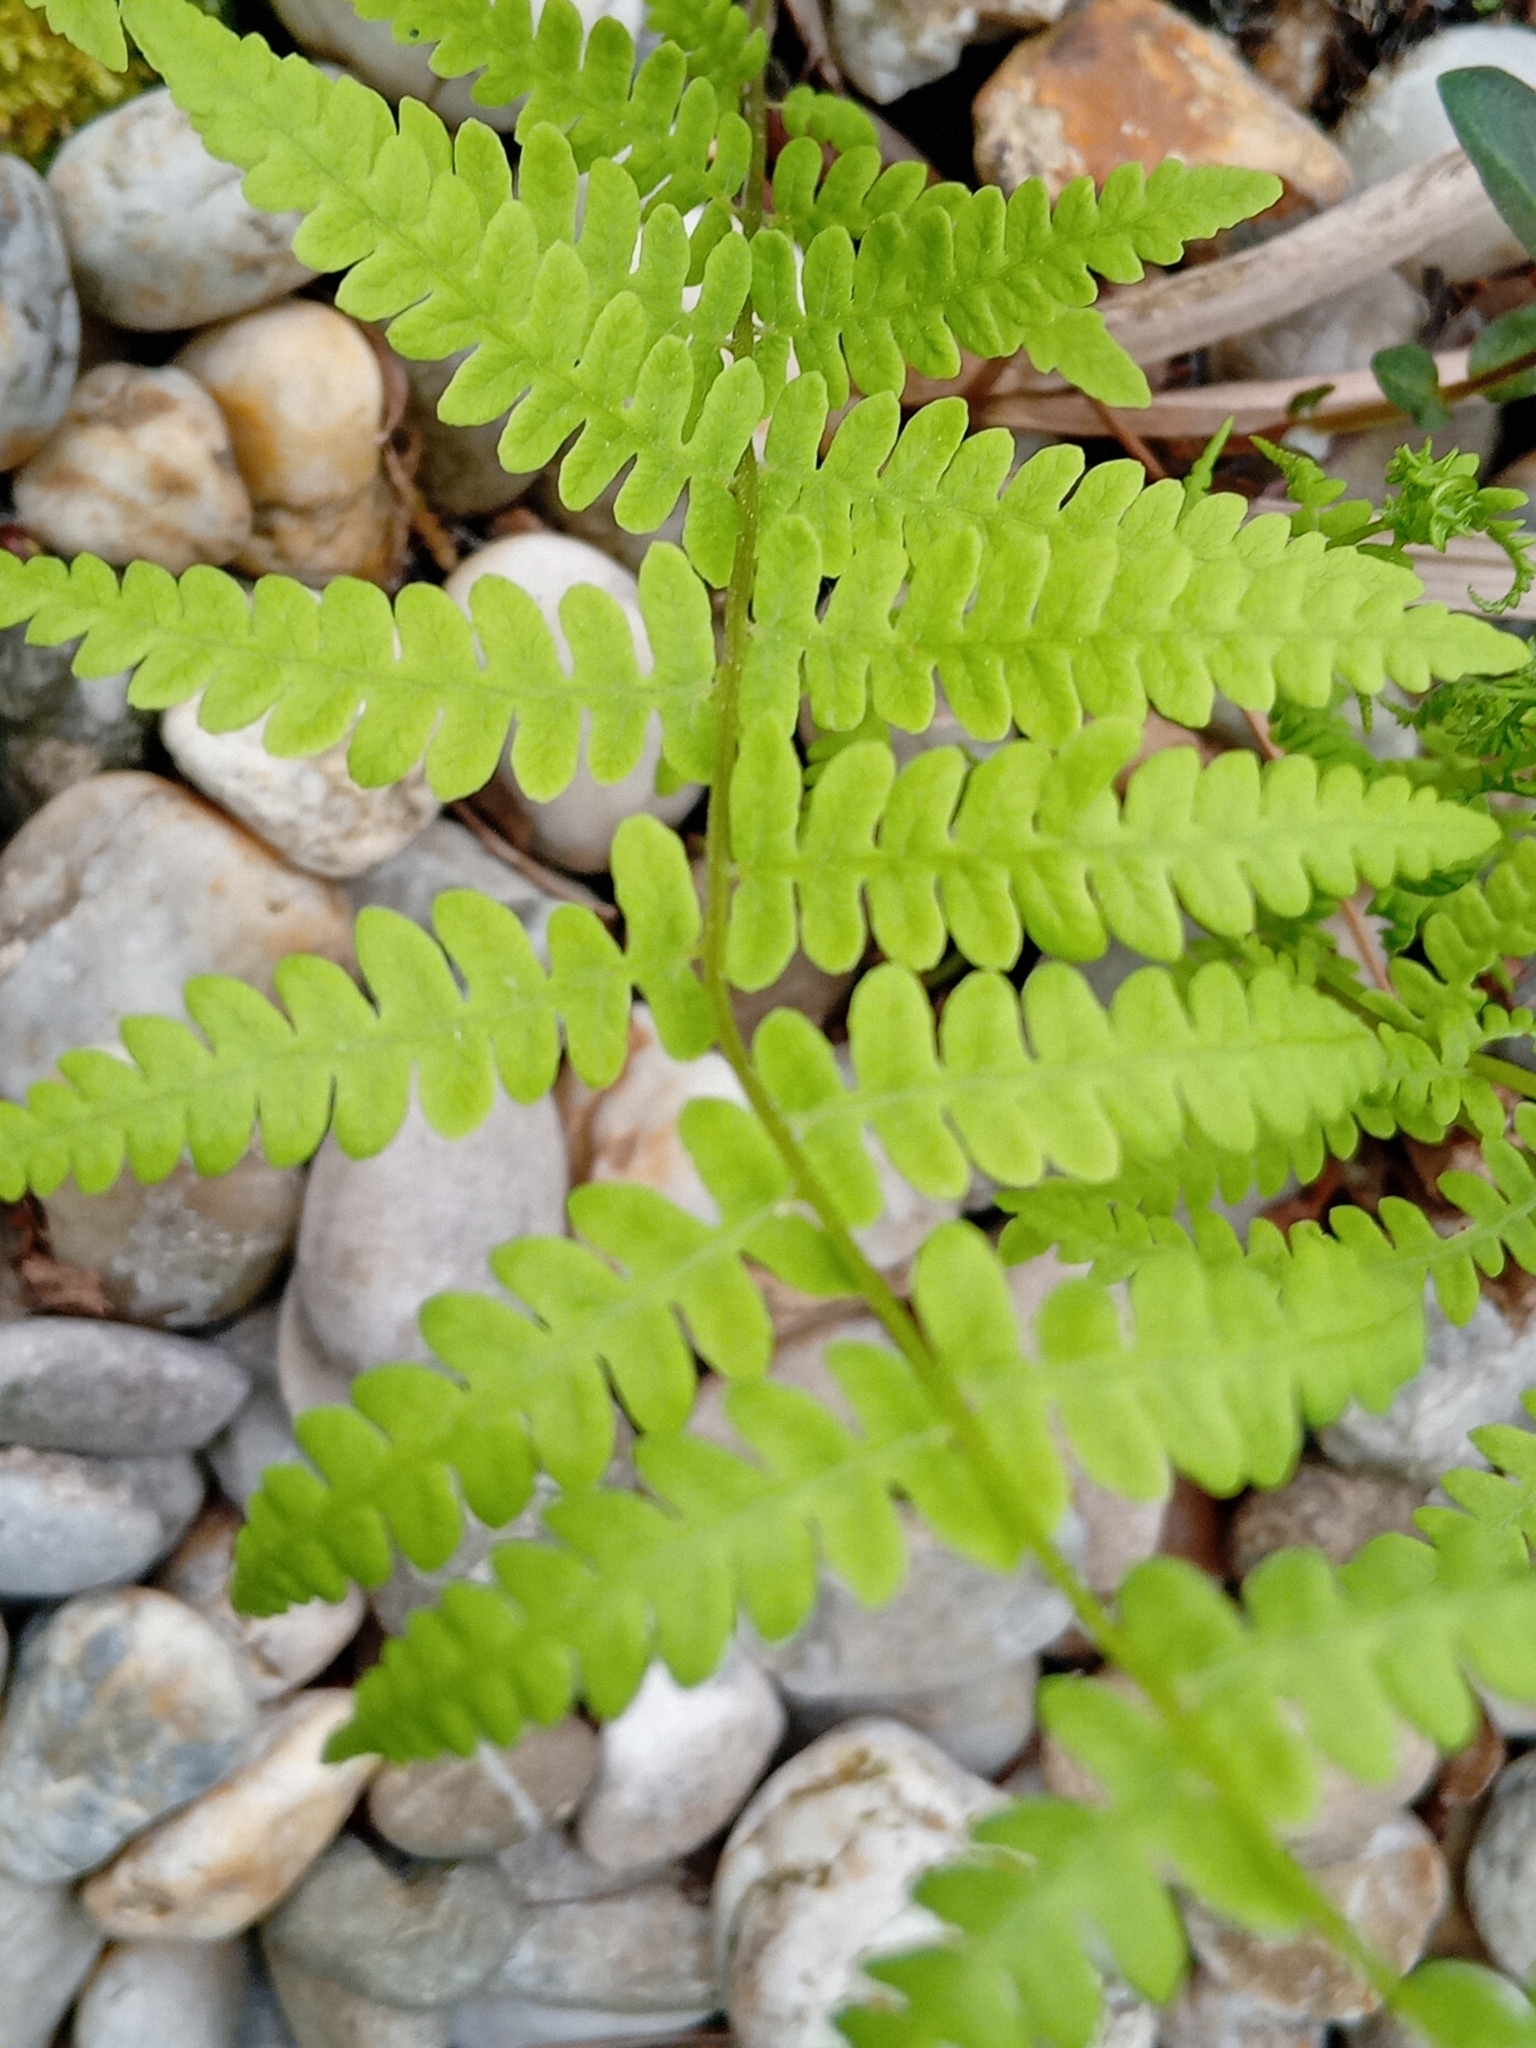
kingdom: Plantae
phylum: Tracheophyta
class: Polypodiopsida
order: Polypodiales
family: Thelypteridaceae
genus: Thelypteris
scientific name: Thelypteris palustris
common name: Marsh fern
